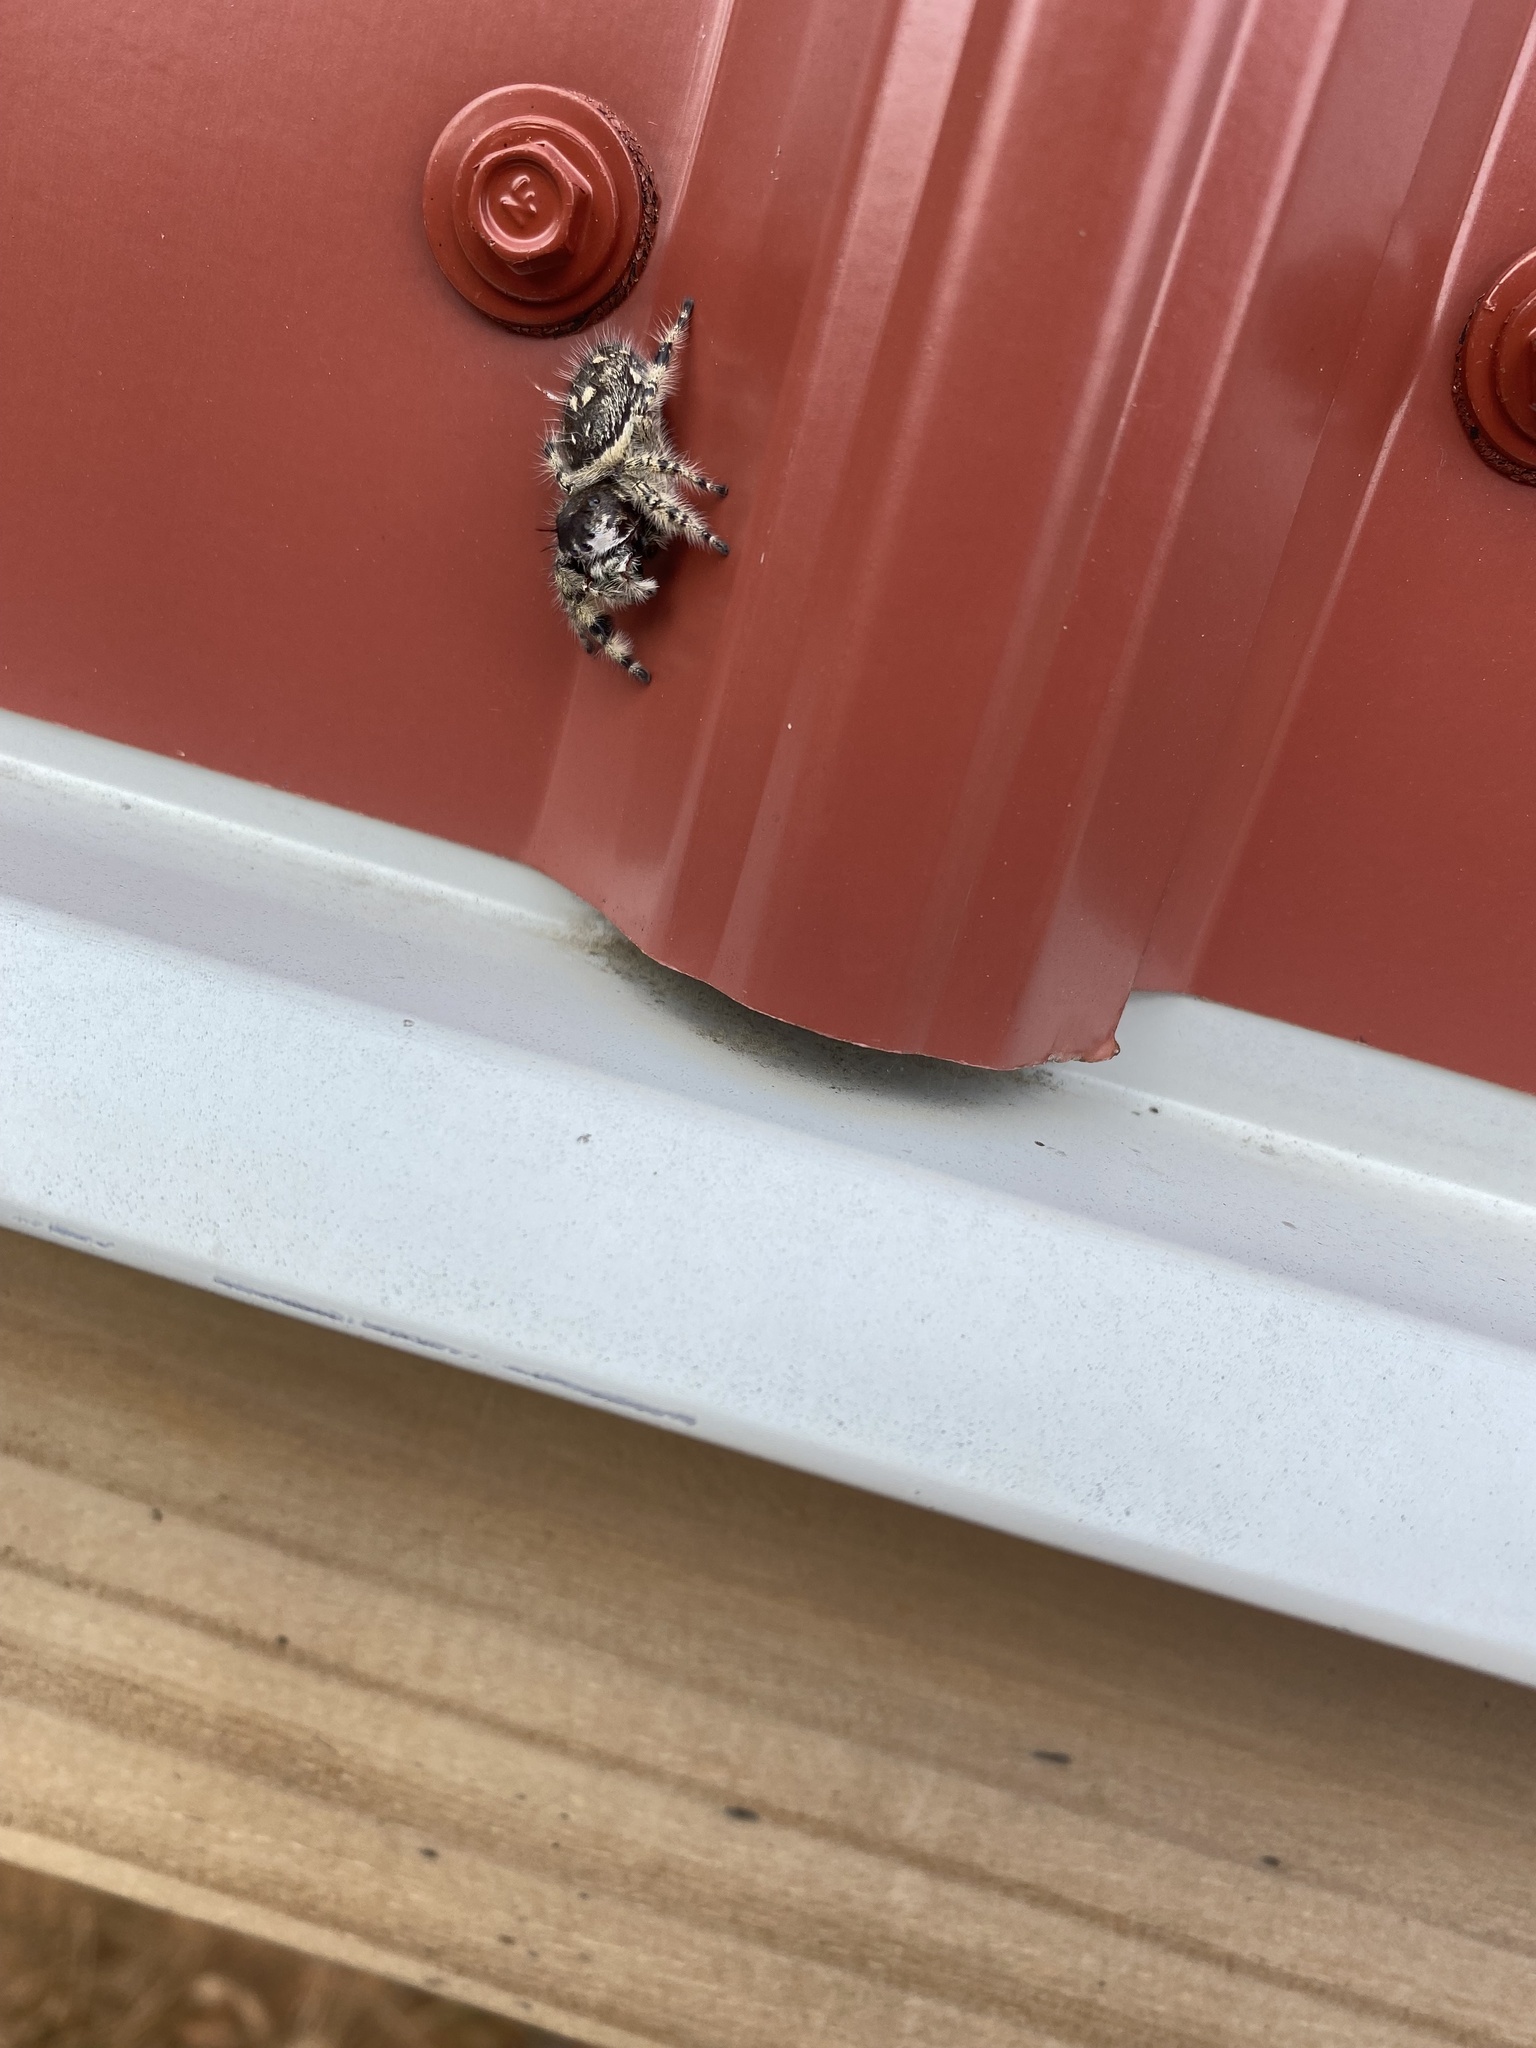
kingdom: Animalia
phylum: Arthropoda
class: Arachnida
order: Araneae
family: Salticidae
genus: Phidippus
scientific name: Phidippus otiosus
